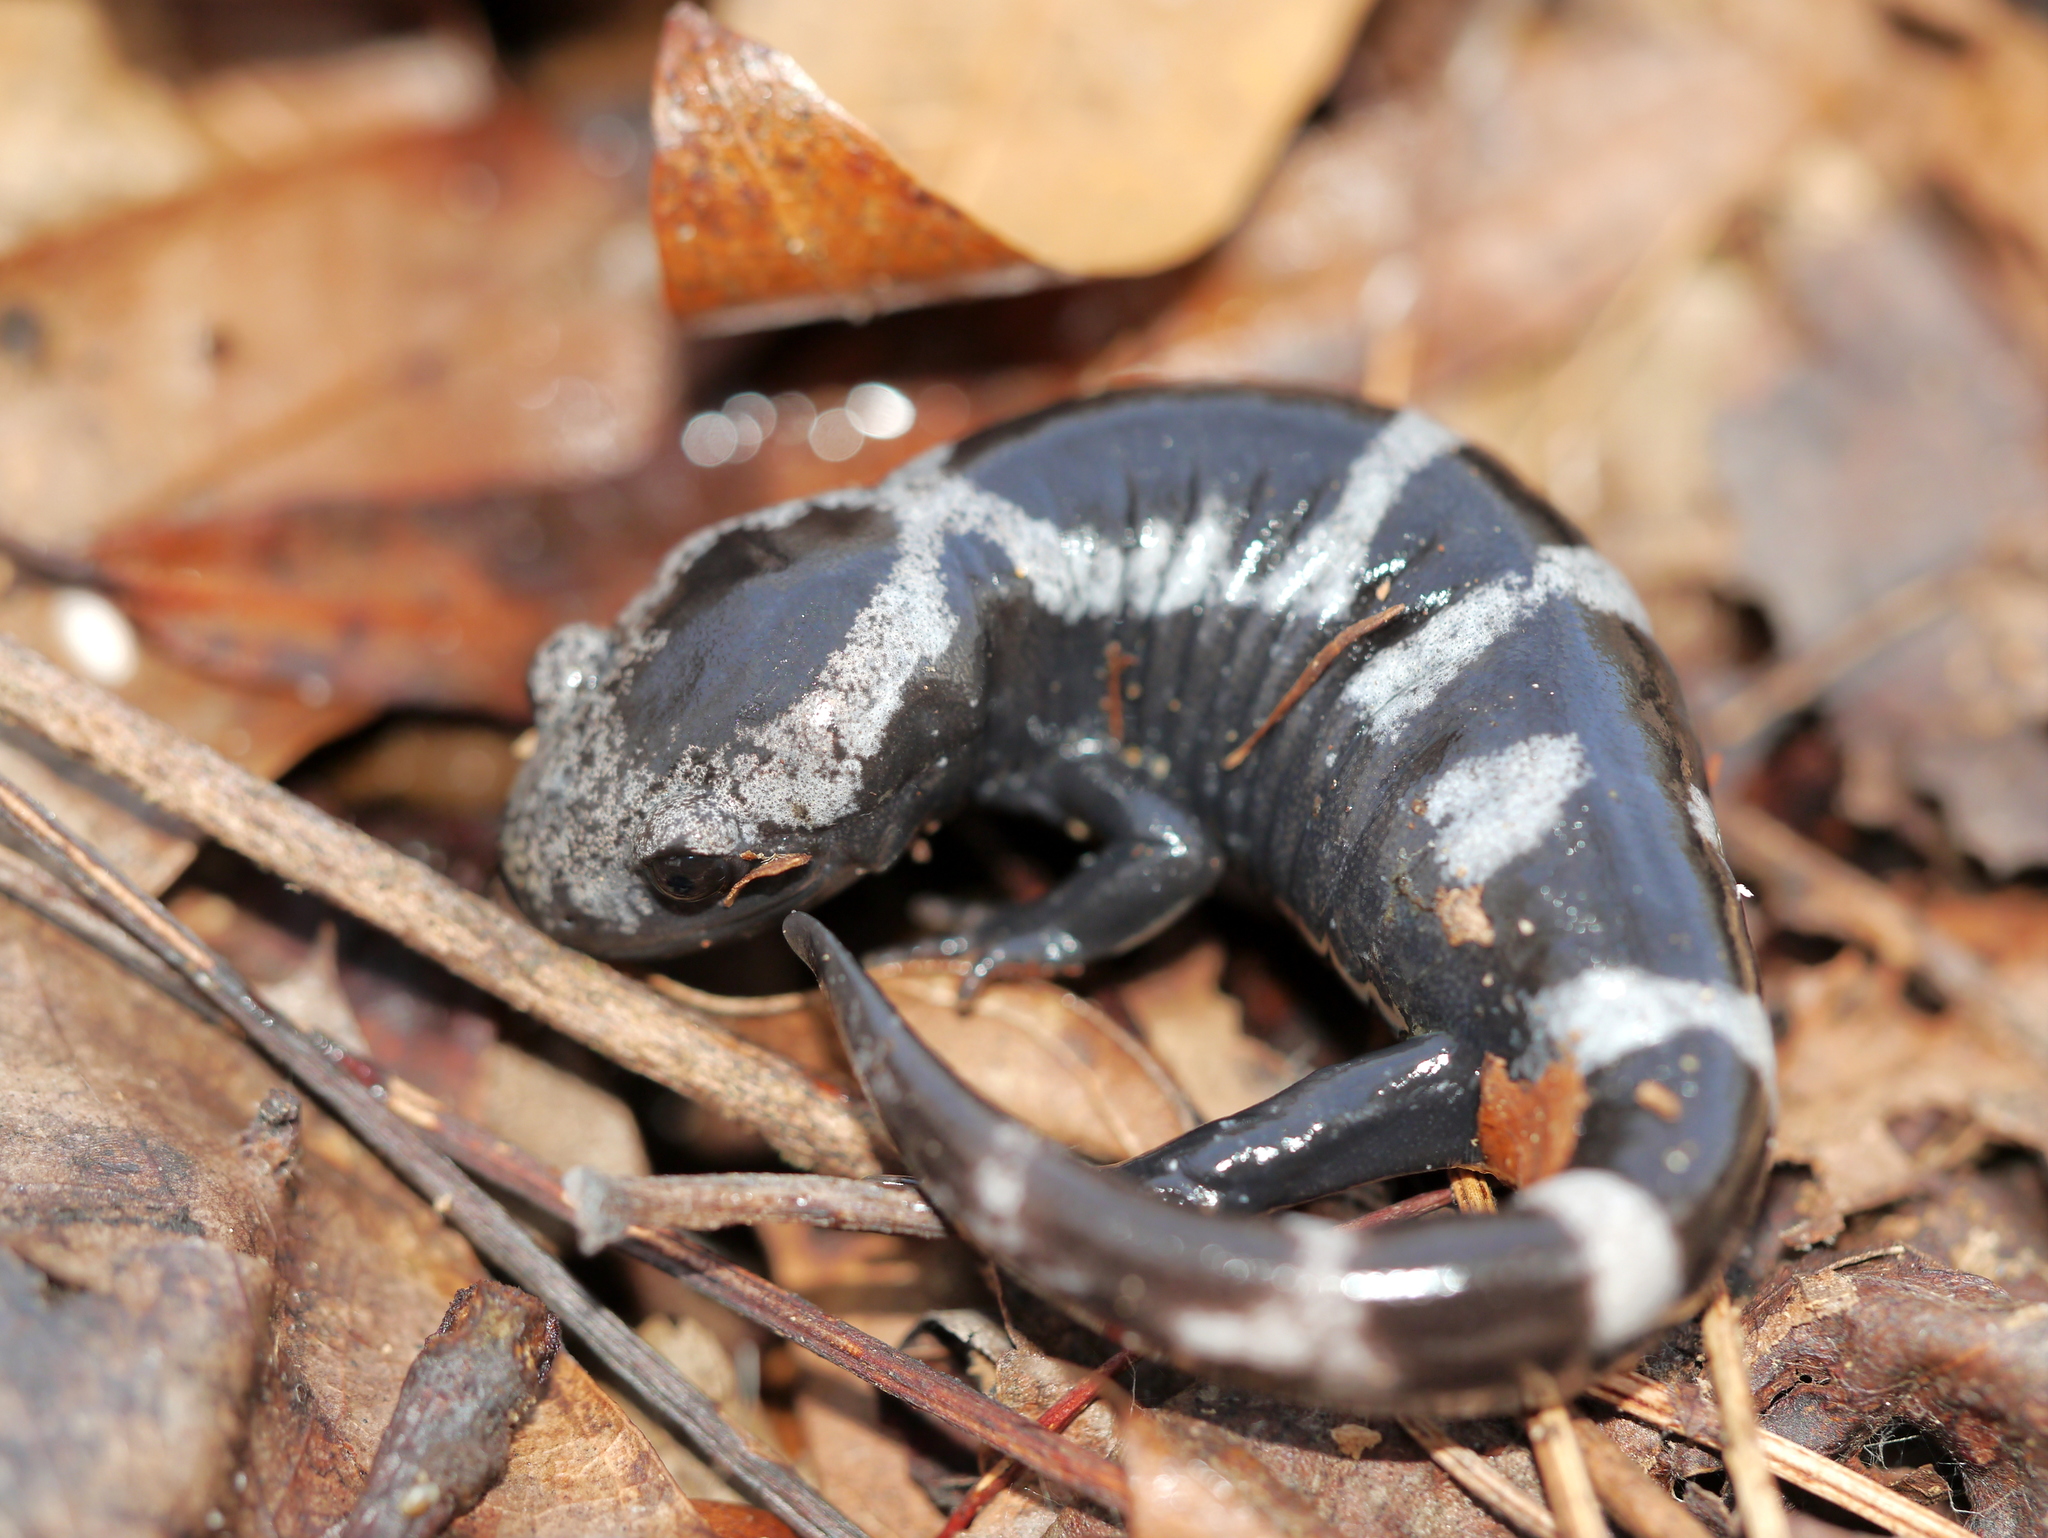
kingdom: Animalia
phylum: Chordata
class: Amphibia
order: Caudata
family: Ambystomatidae
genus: Ambystoma
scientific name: Ambystoma opacum
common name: Marbled salamander
